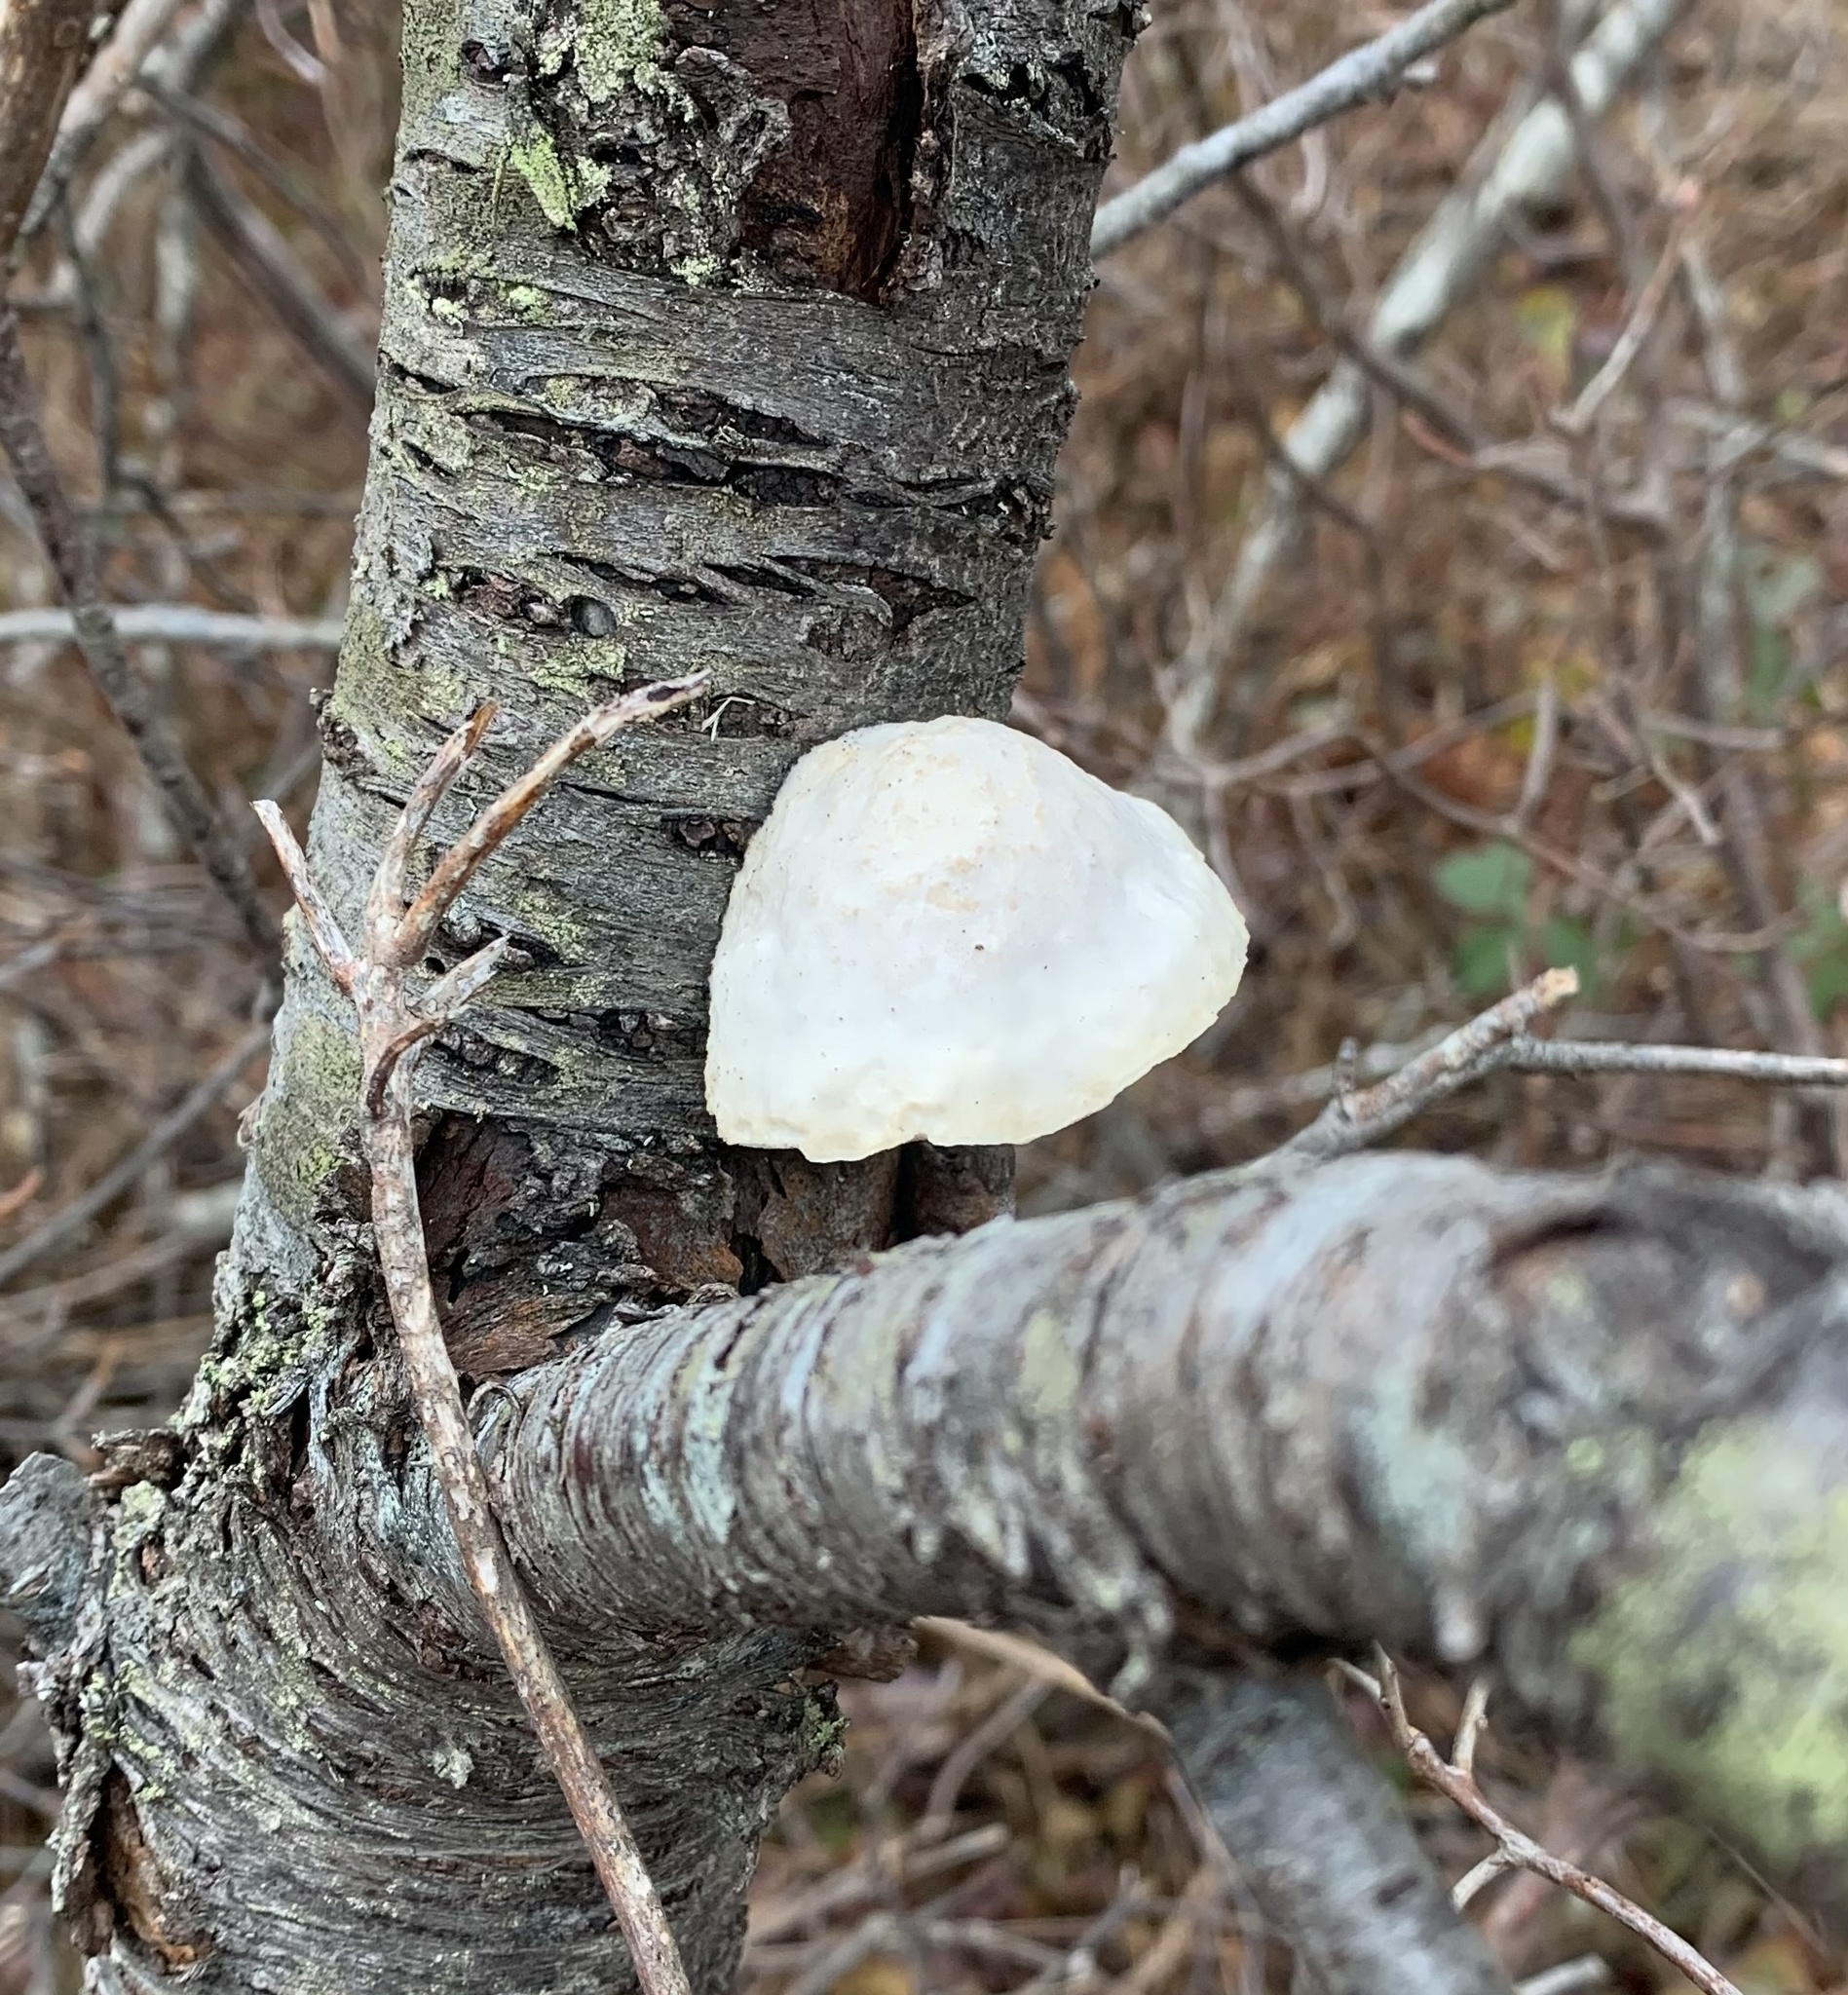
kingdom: Fungi
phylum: Basidiomycota
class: Agaricomycetes
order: Polyporales
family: Fomitopsidaceae
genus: Fomitopsis
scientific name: Fomitopsis betulina
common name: Birch polypore
